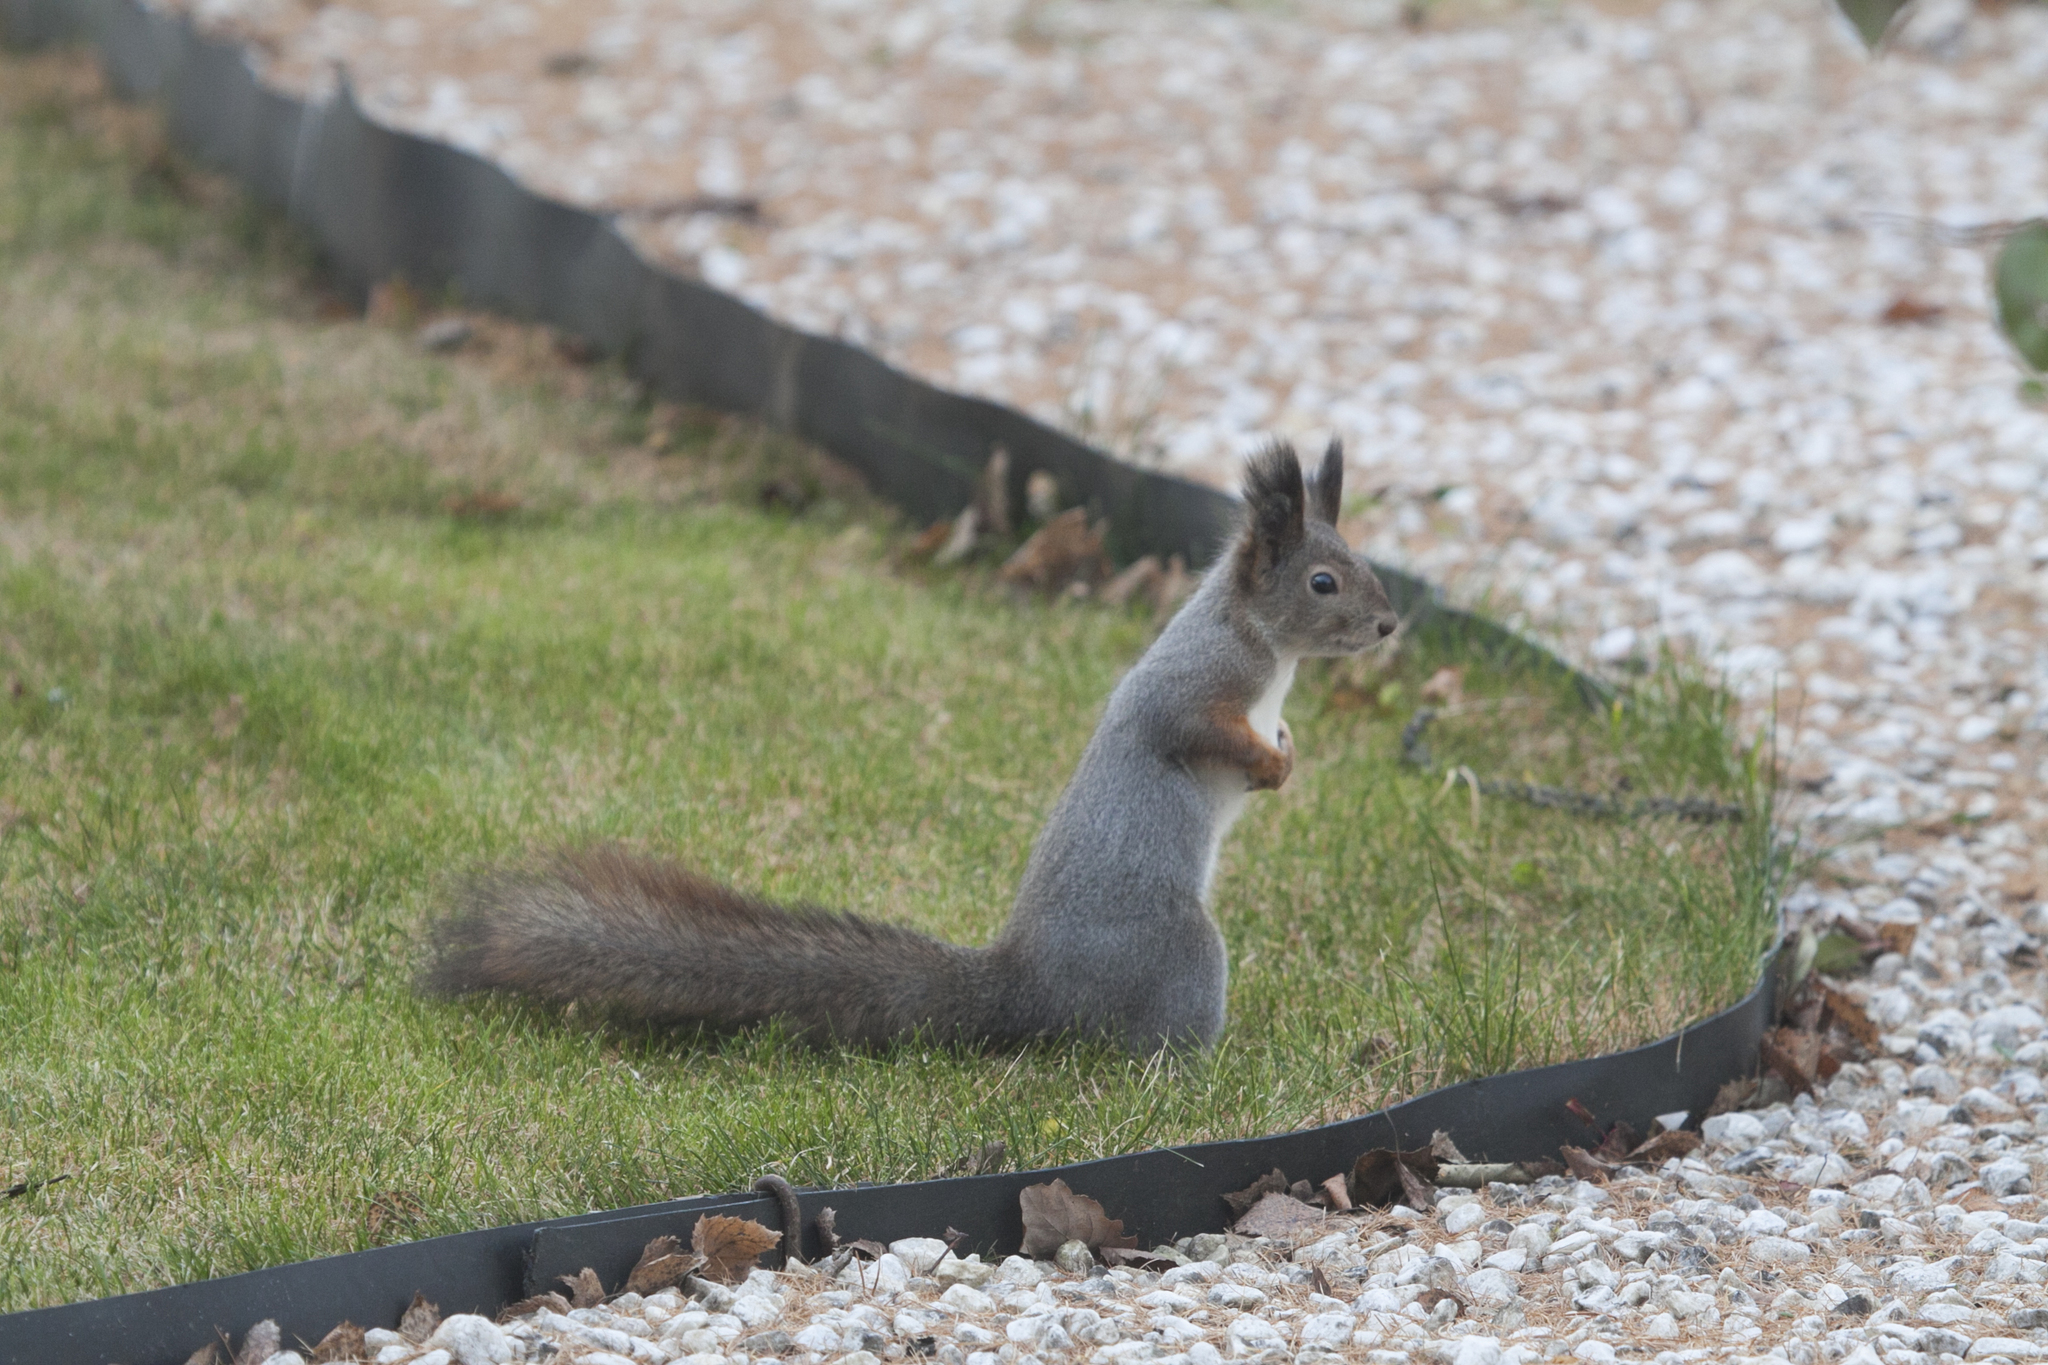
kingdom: Animalia
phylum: Chordata
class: Mammalia
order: Rodentia
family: Sciuridae
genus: Sciurus
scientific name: Sciurus vulgaris
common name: Eurasian red squirrel
